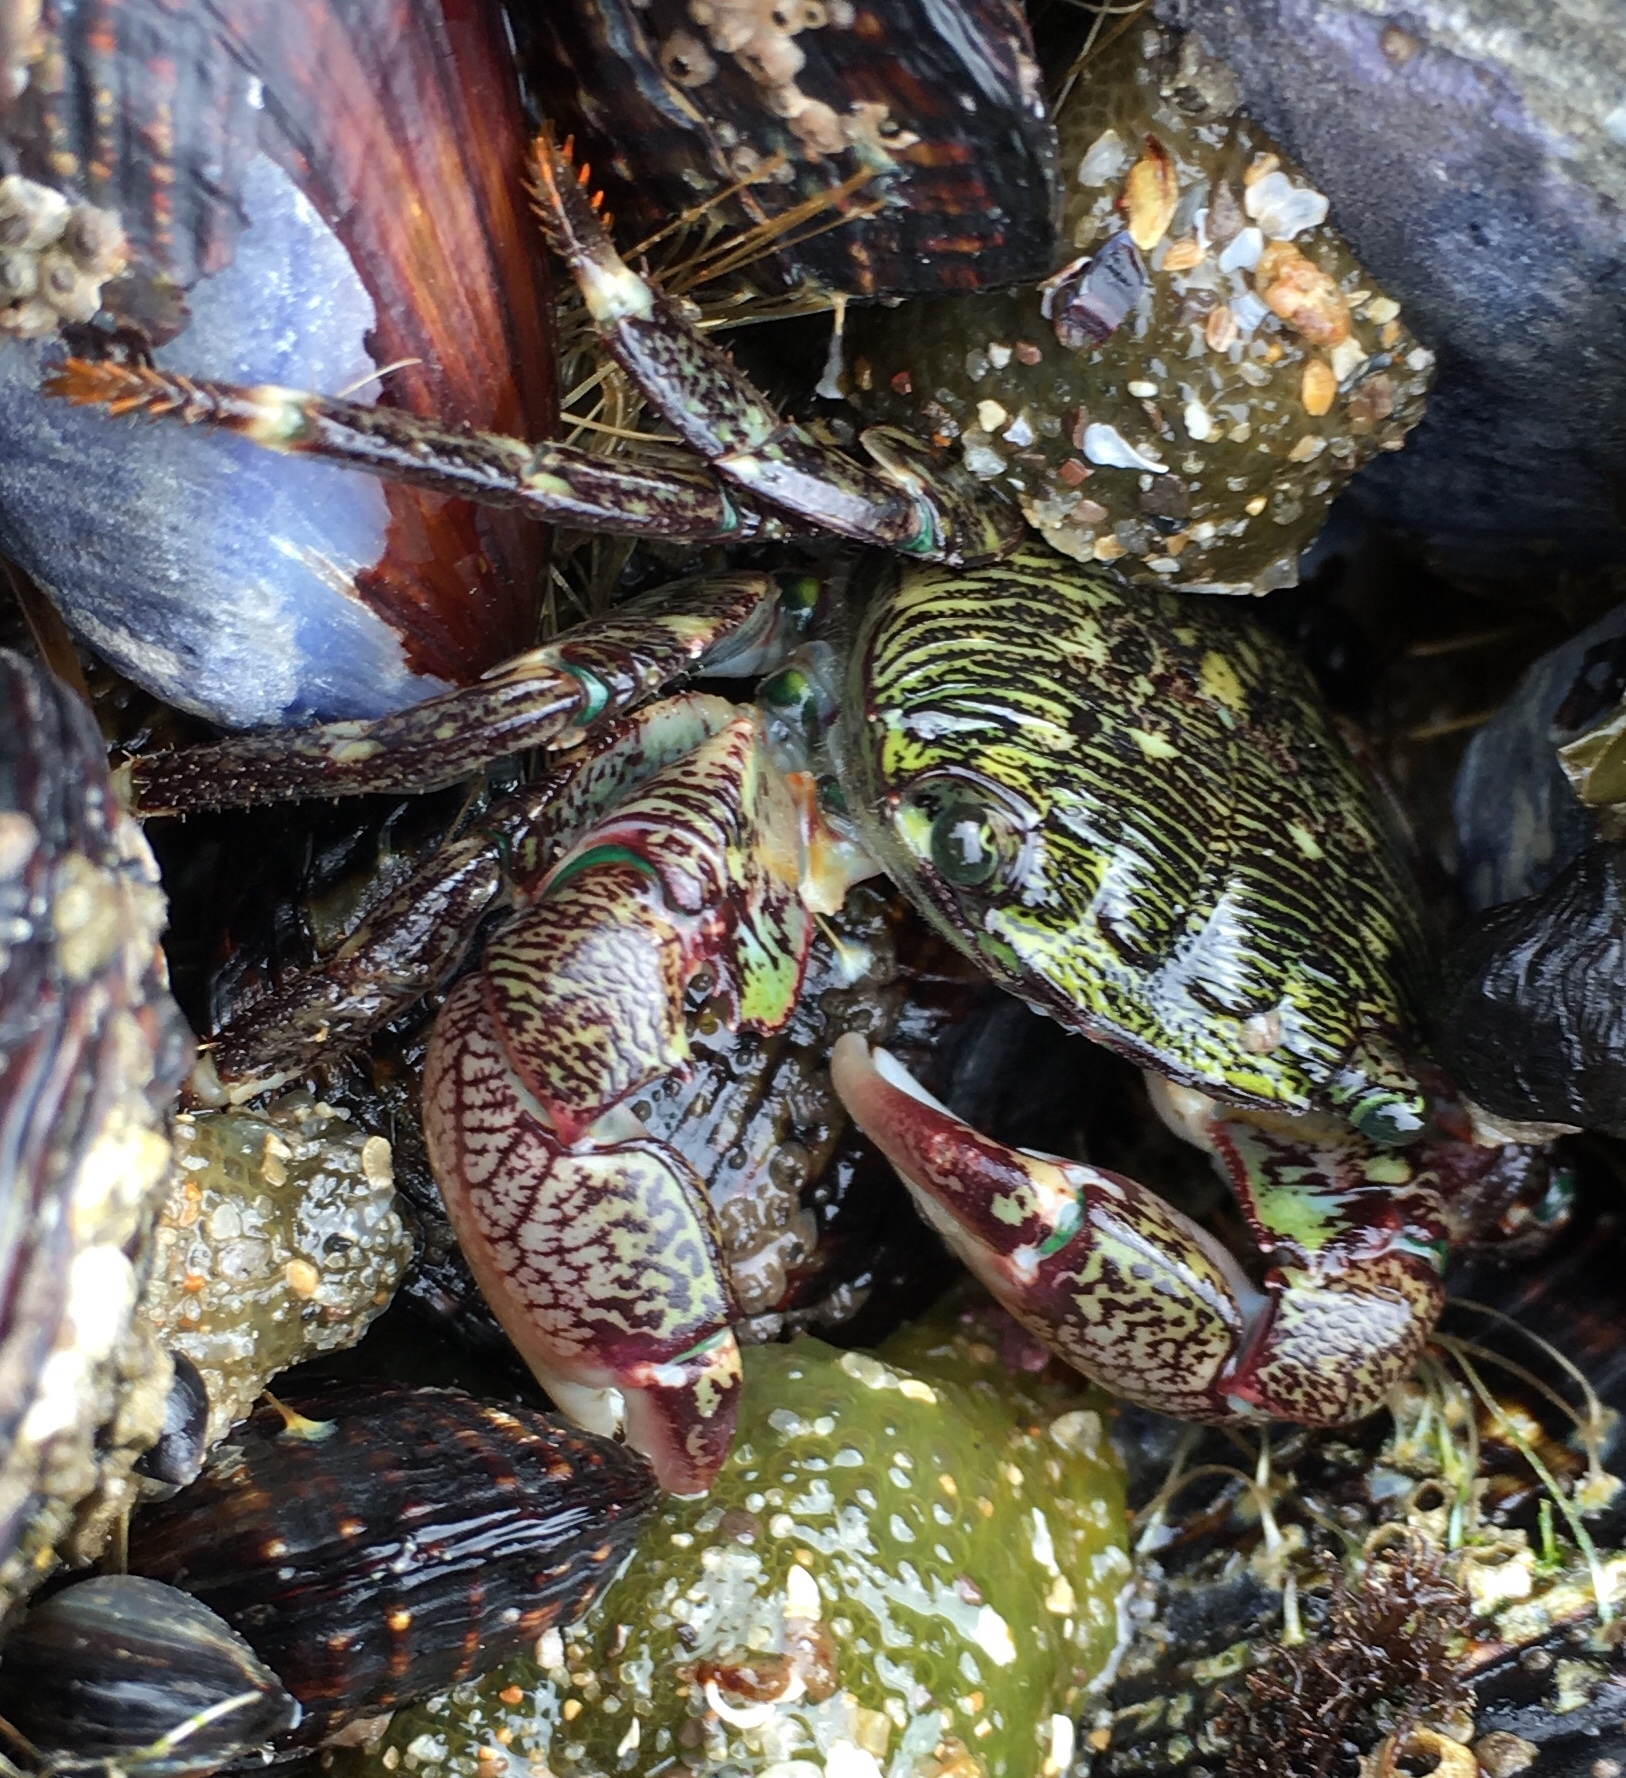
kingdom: Animalia
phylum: Arthropoda
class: Malacostraca
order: Decapoda
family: Grapsidae
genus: Pachygrapsus
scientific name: Pachygrapsus crassipes
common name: Striped shore crab
